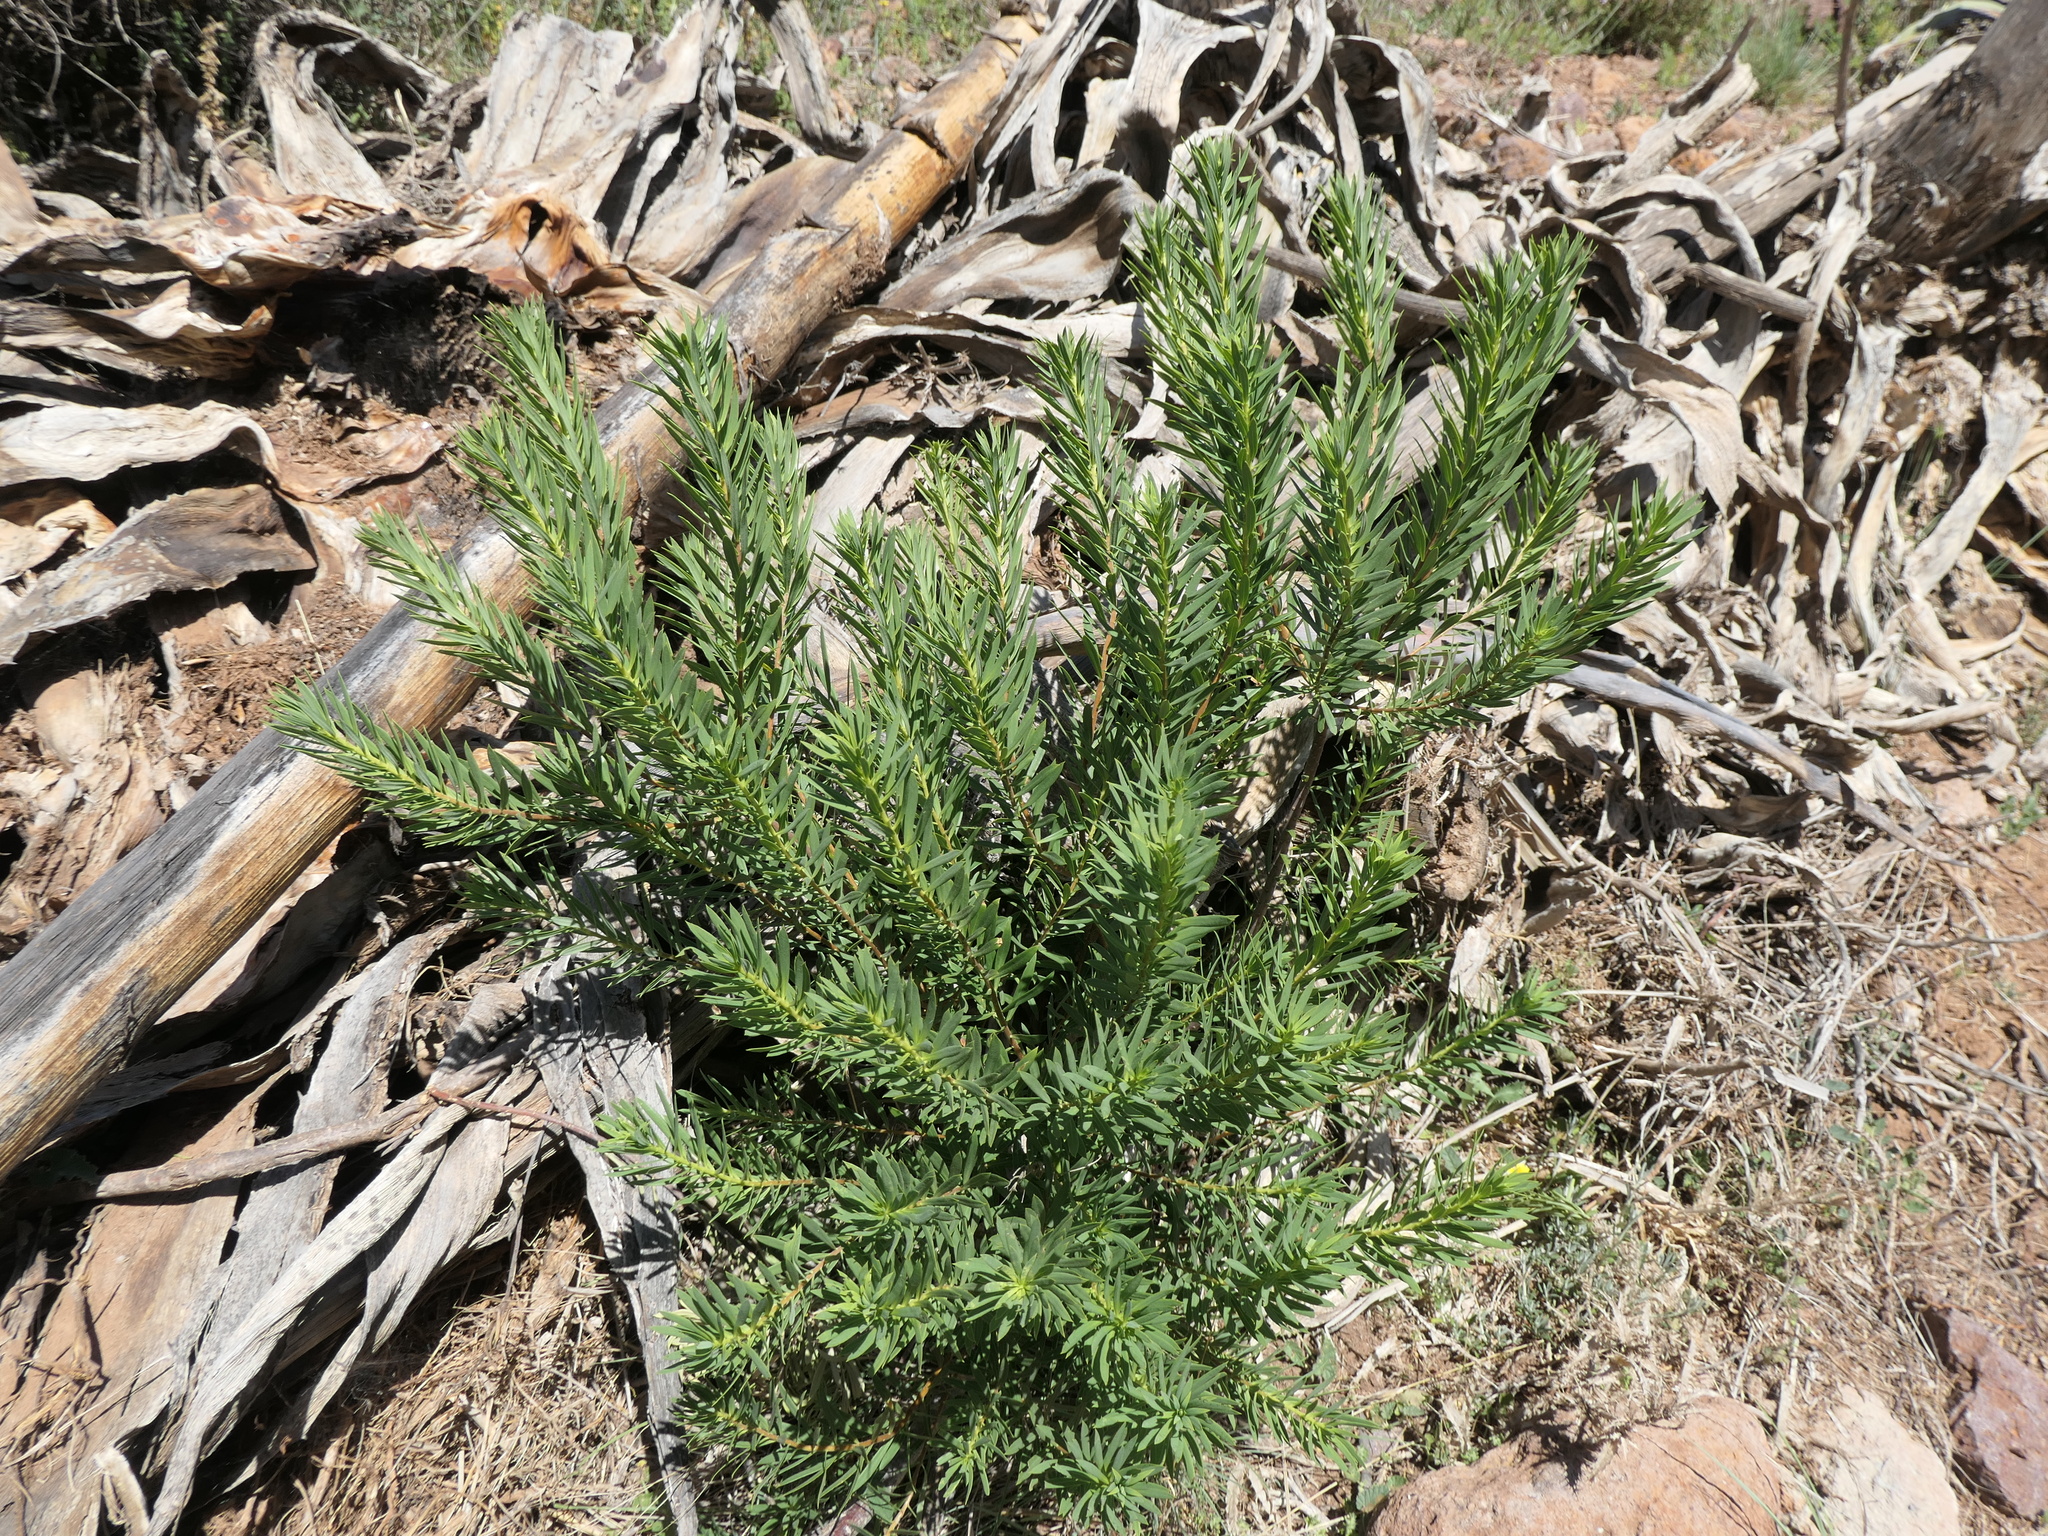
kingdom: Plantae
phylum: Tracheophyta
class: Magnoliopsida
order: Malvales
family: Thymelaeaceae
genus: Daphne
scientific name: Daphne gnidium
